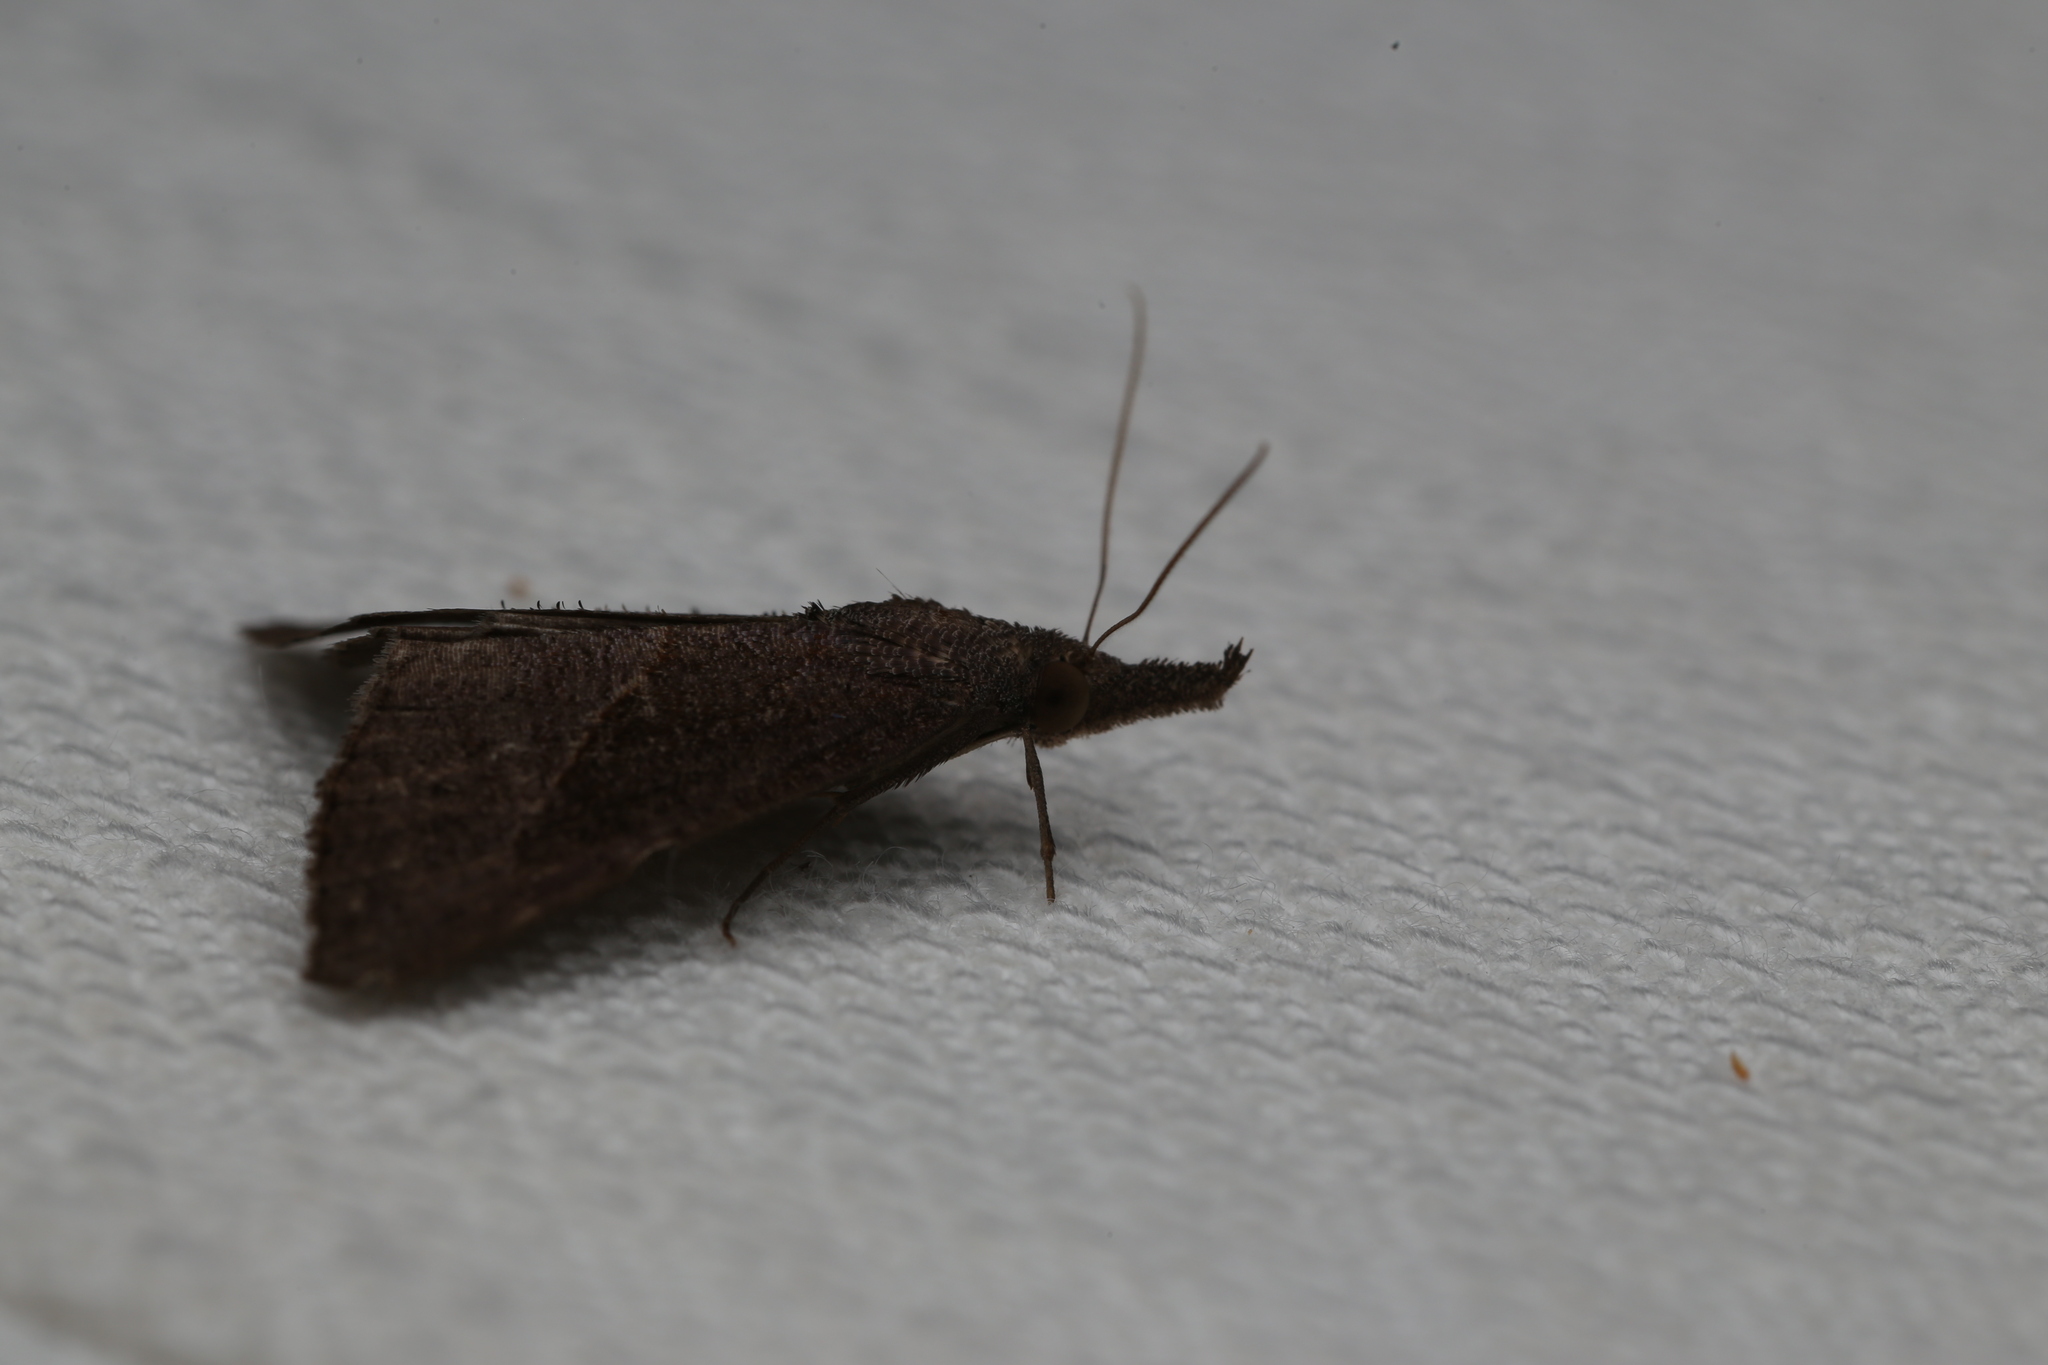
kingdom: Animalia
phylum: Arthropoda
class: Insecta
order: Lepidoptera
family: Erebidae
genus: Hypena
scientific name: Hypena lividalis
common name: Chevron snout
